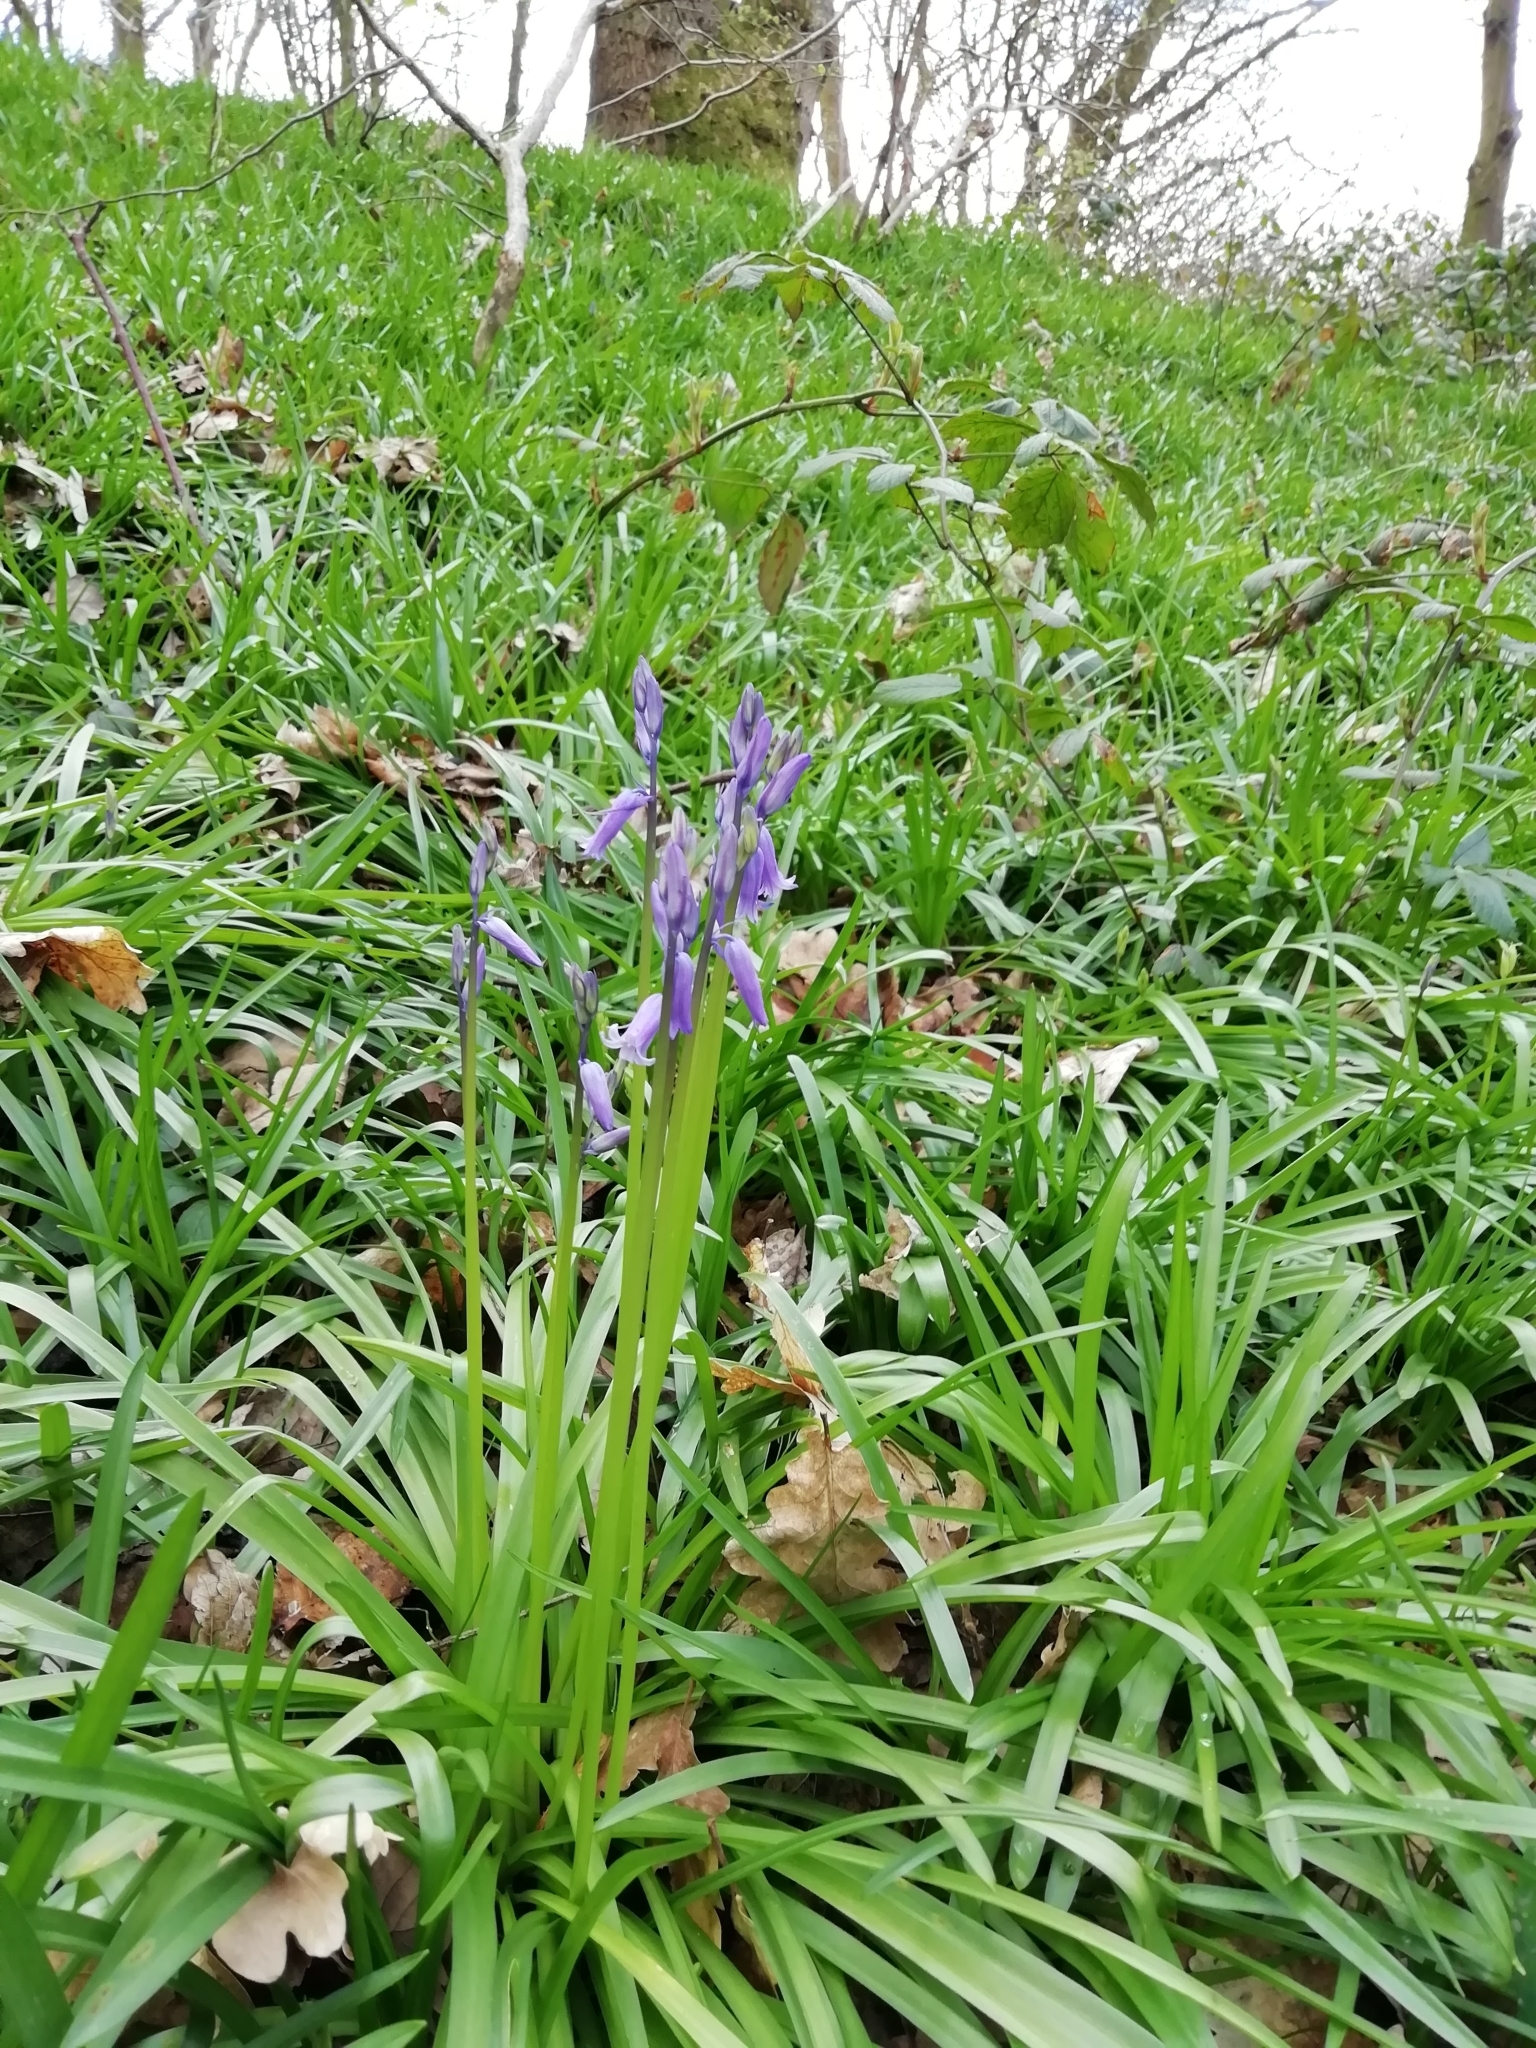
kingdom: Plantae
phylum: Tracheophyta
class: Liliopsida
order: Asparagales
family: Asparagaceae
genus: Hyacinthoides
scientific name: Hyacinthoides non-scripta
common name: Bluebell
